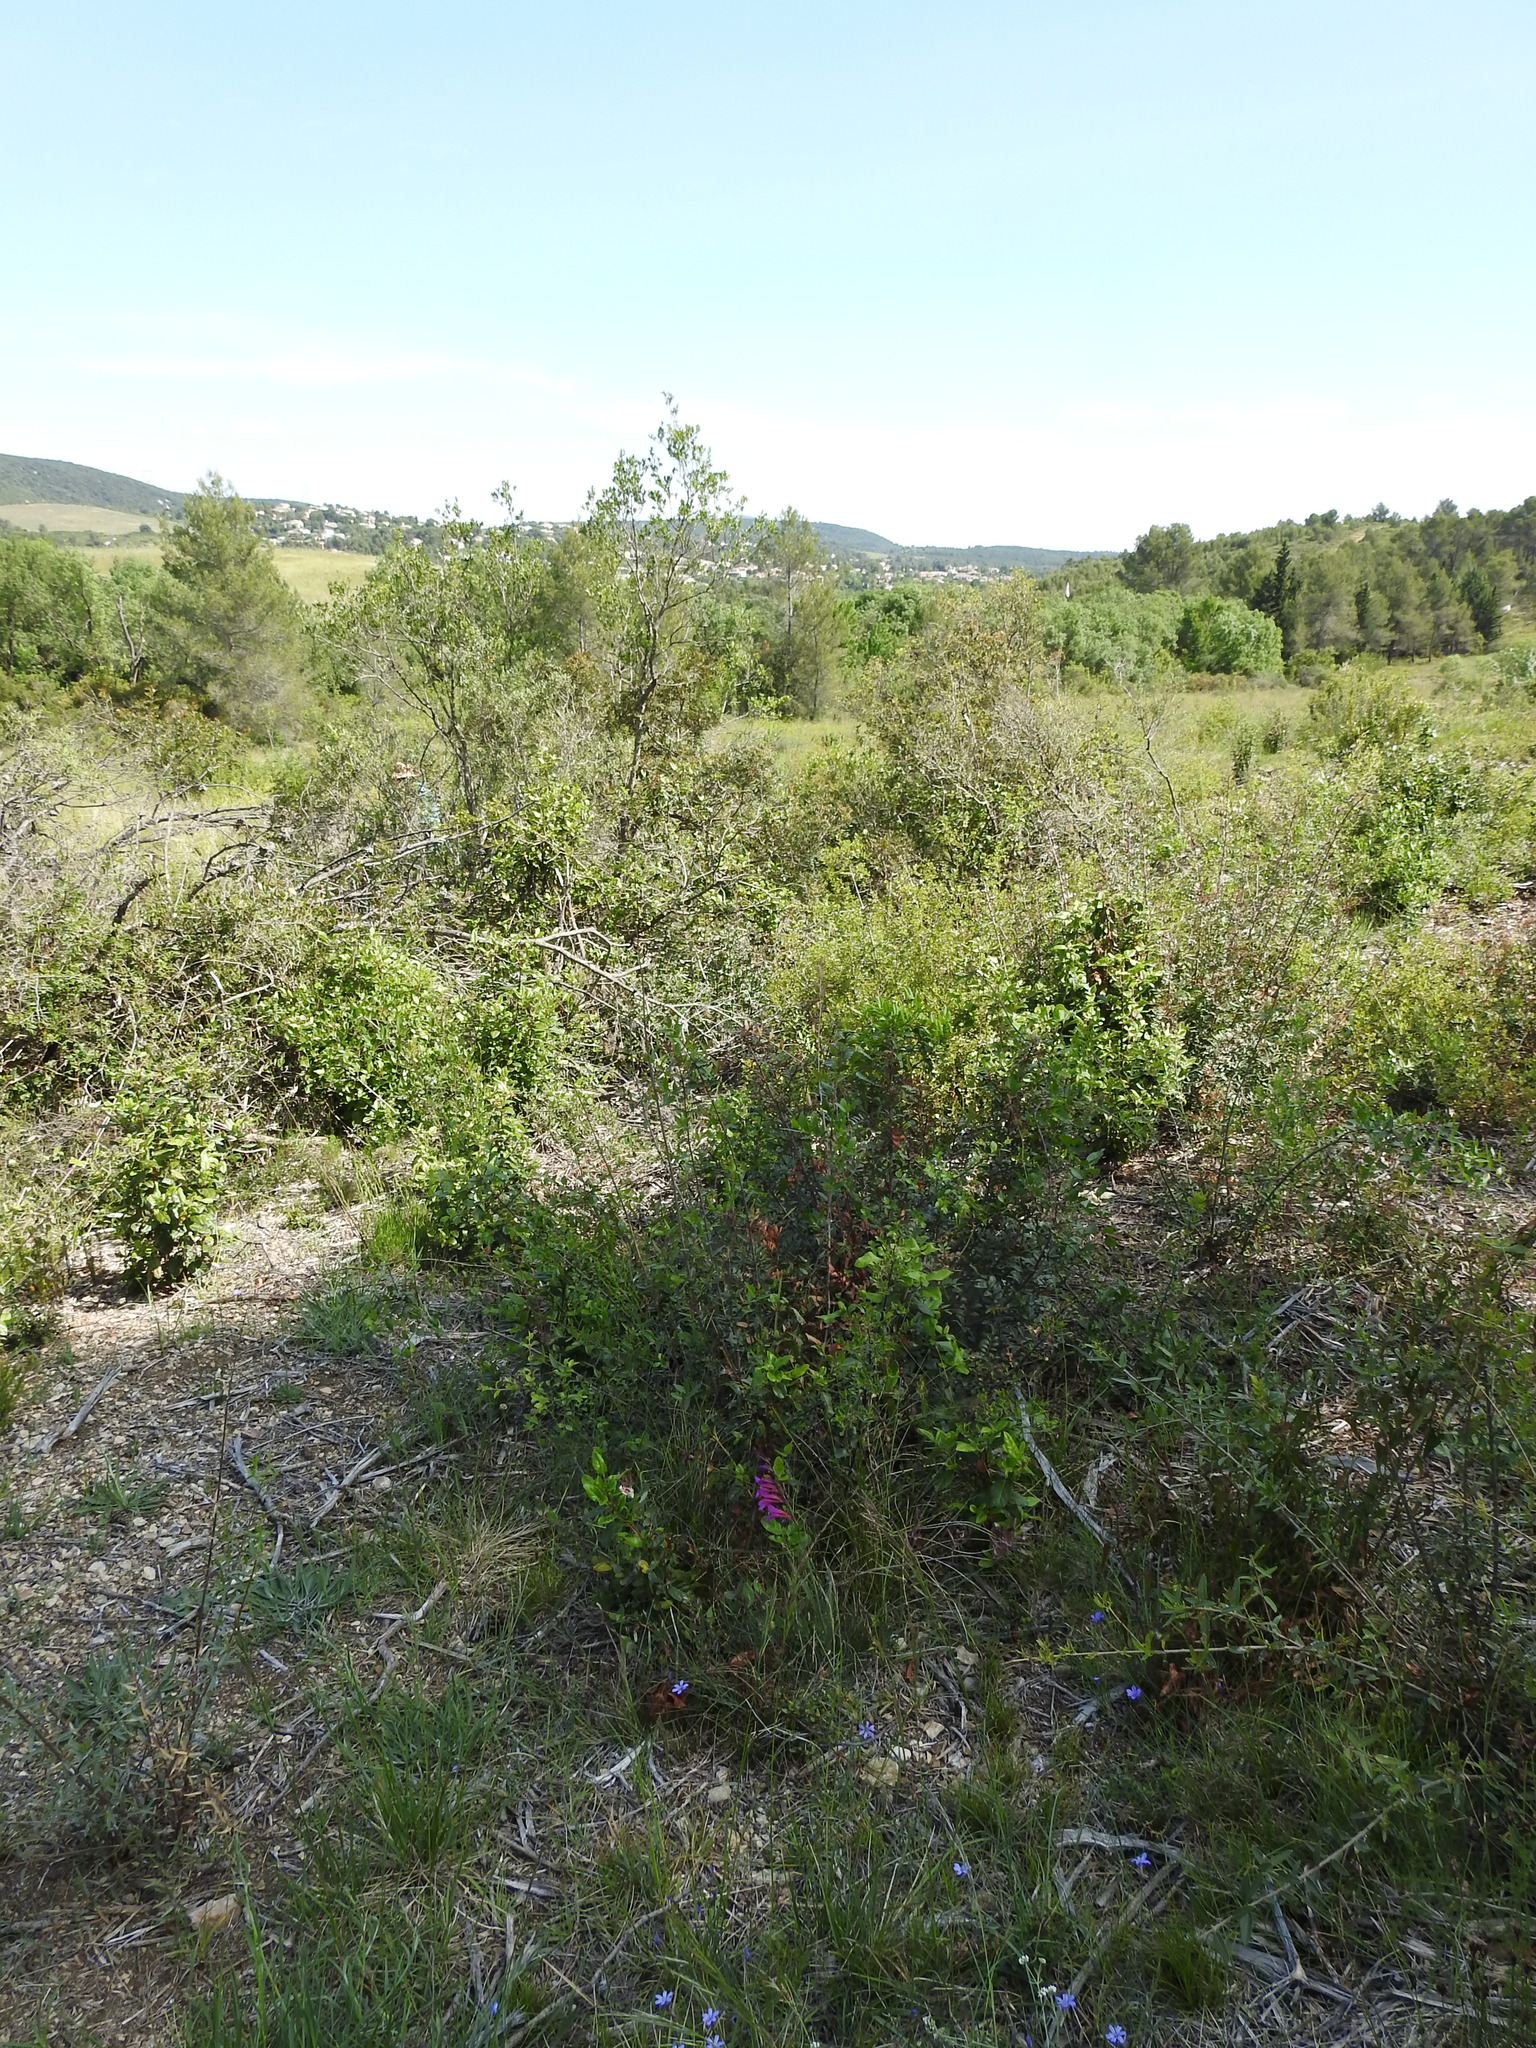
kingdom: Plantae
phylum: Tracheophyta
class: Liliopsida
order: Asparagales
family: Iridaceae
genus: Gladiolus
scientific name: Gladiolus dubius
